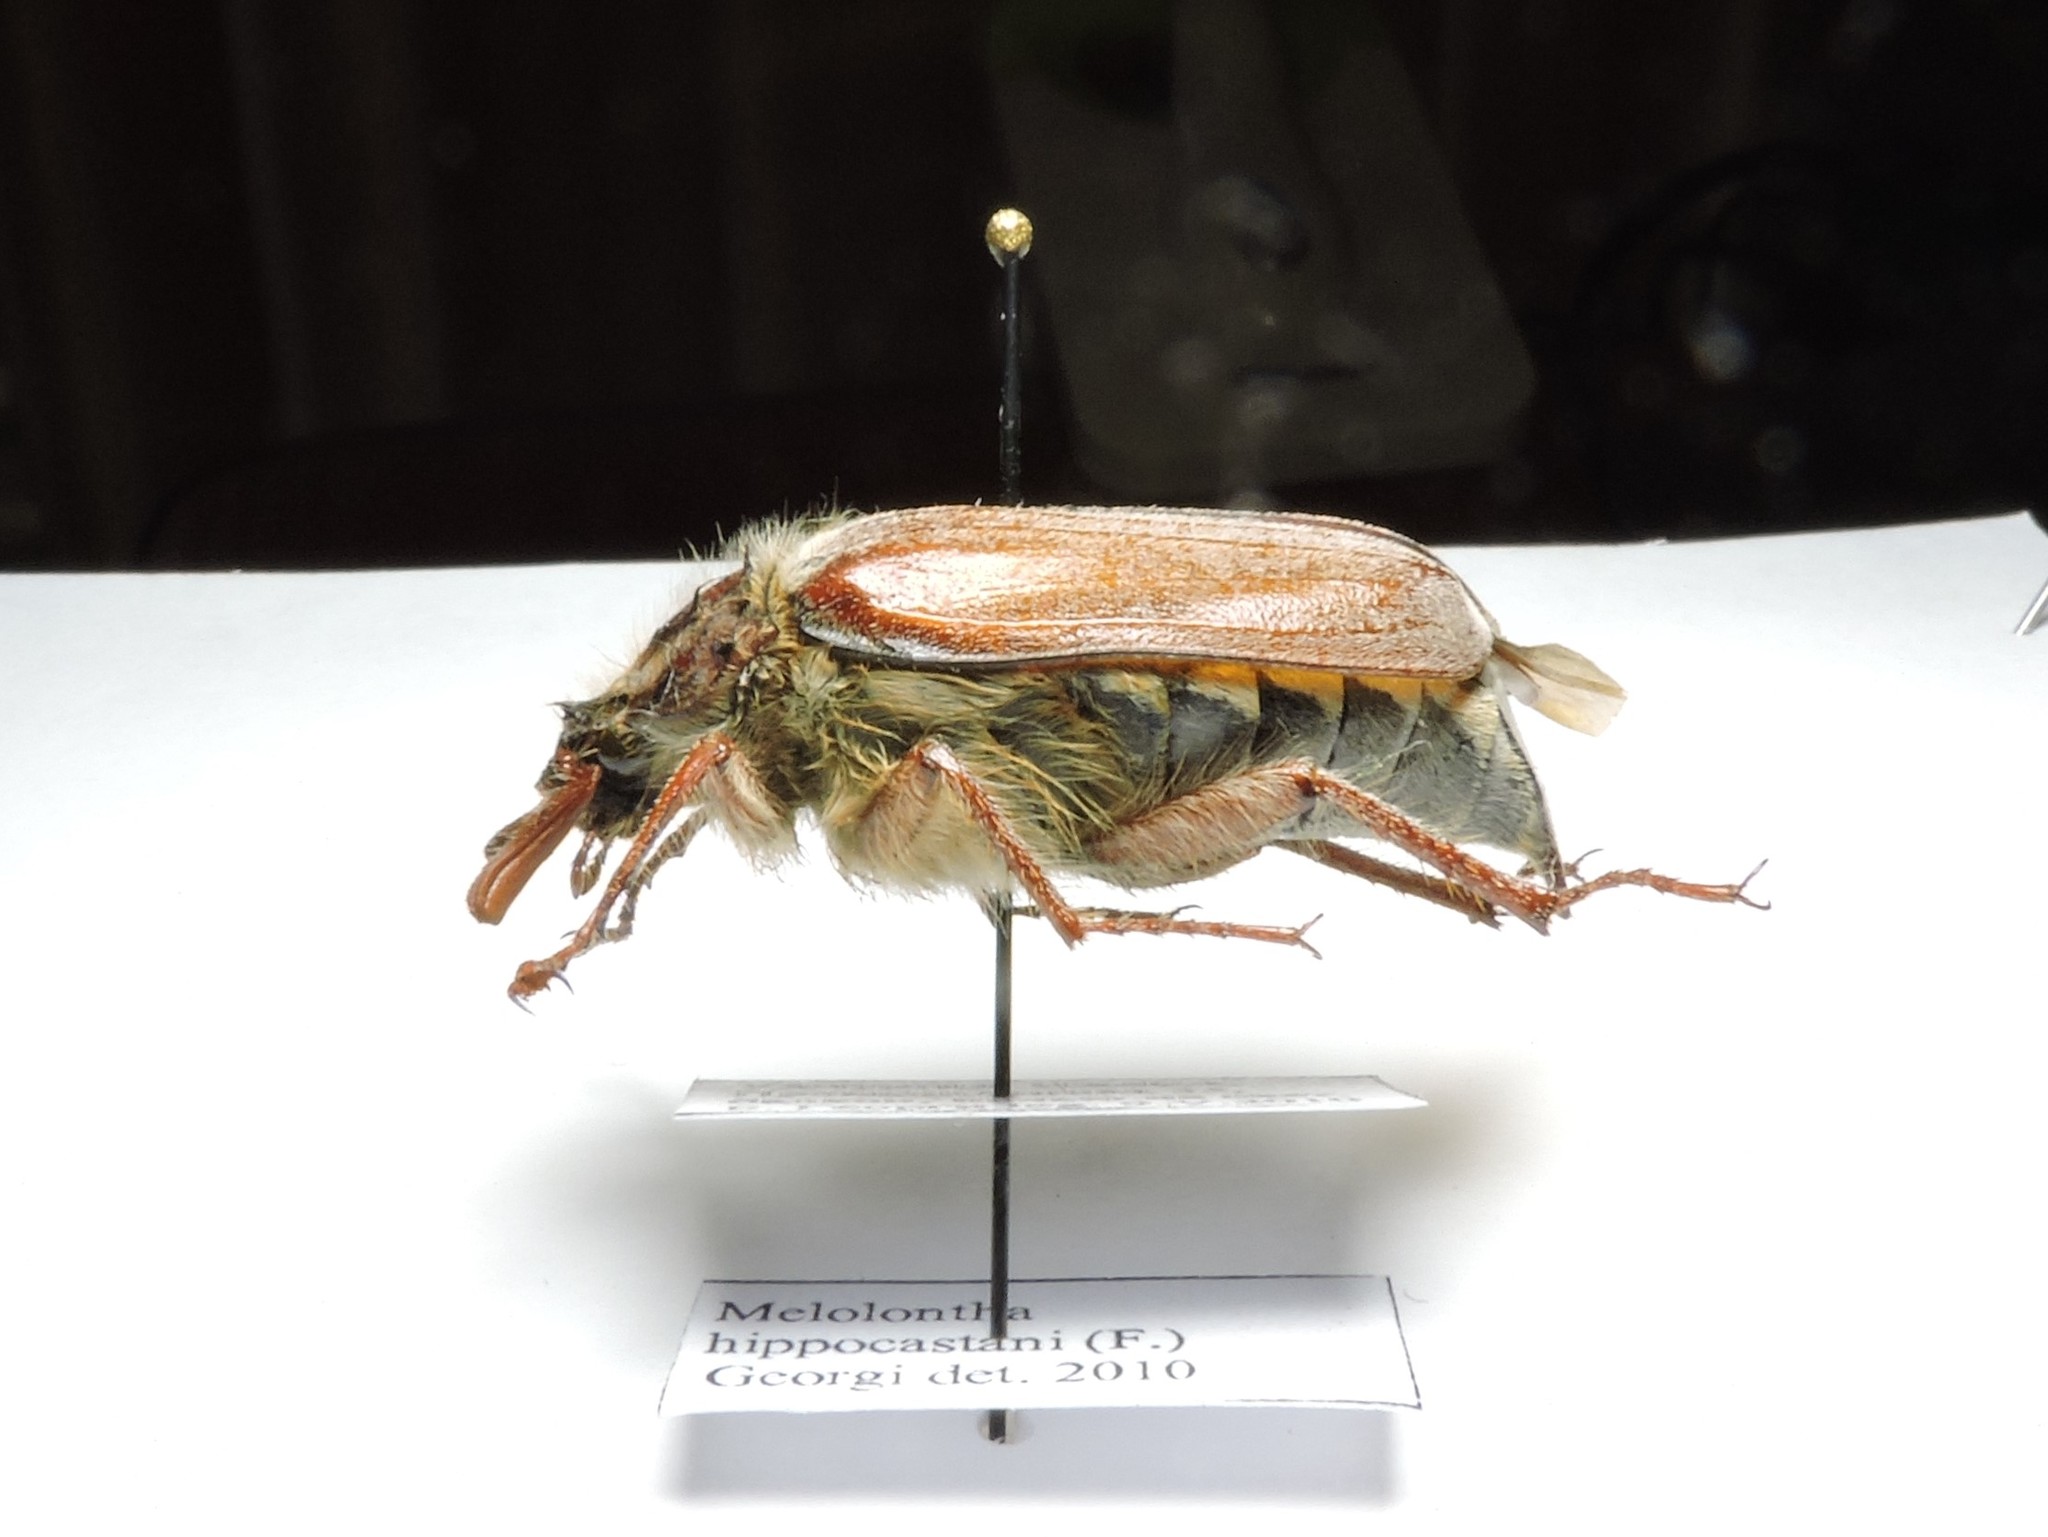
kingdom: Animalia
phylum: Arthropoda
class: Insecta
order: Coleoptera
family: Scarabaeidae
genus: Melolontha
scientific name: Melolontha hippocastani
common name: Chestnut cockchafer
